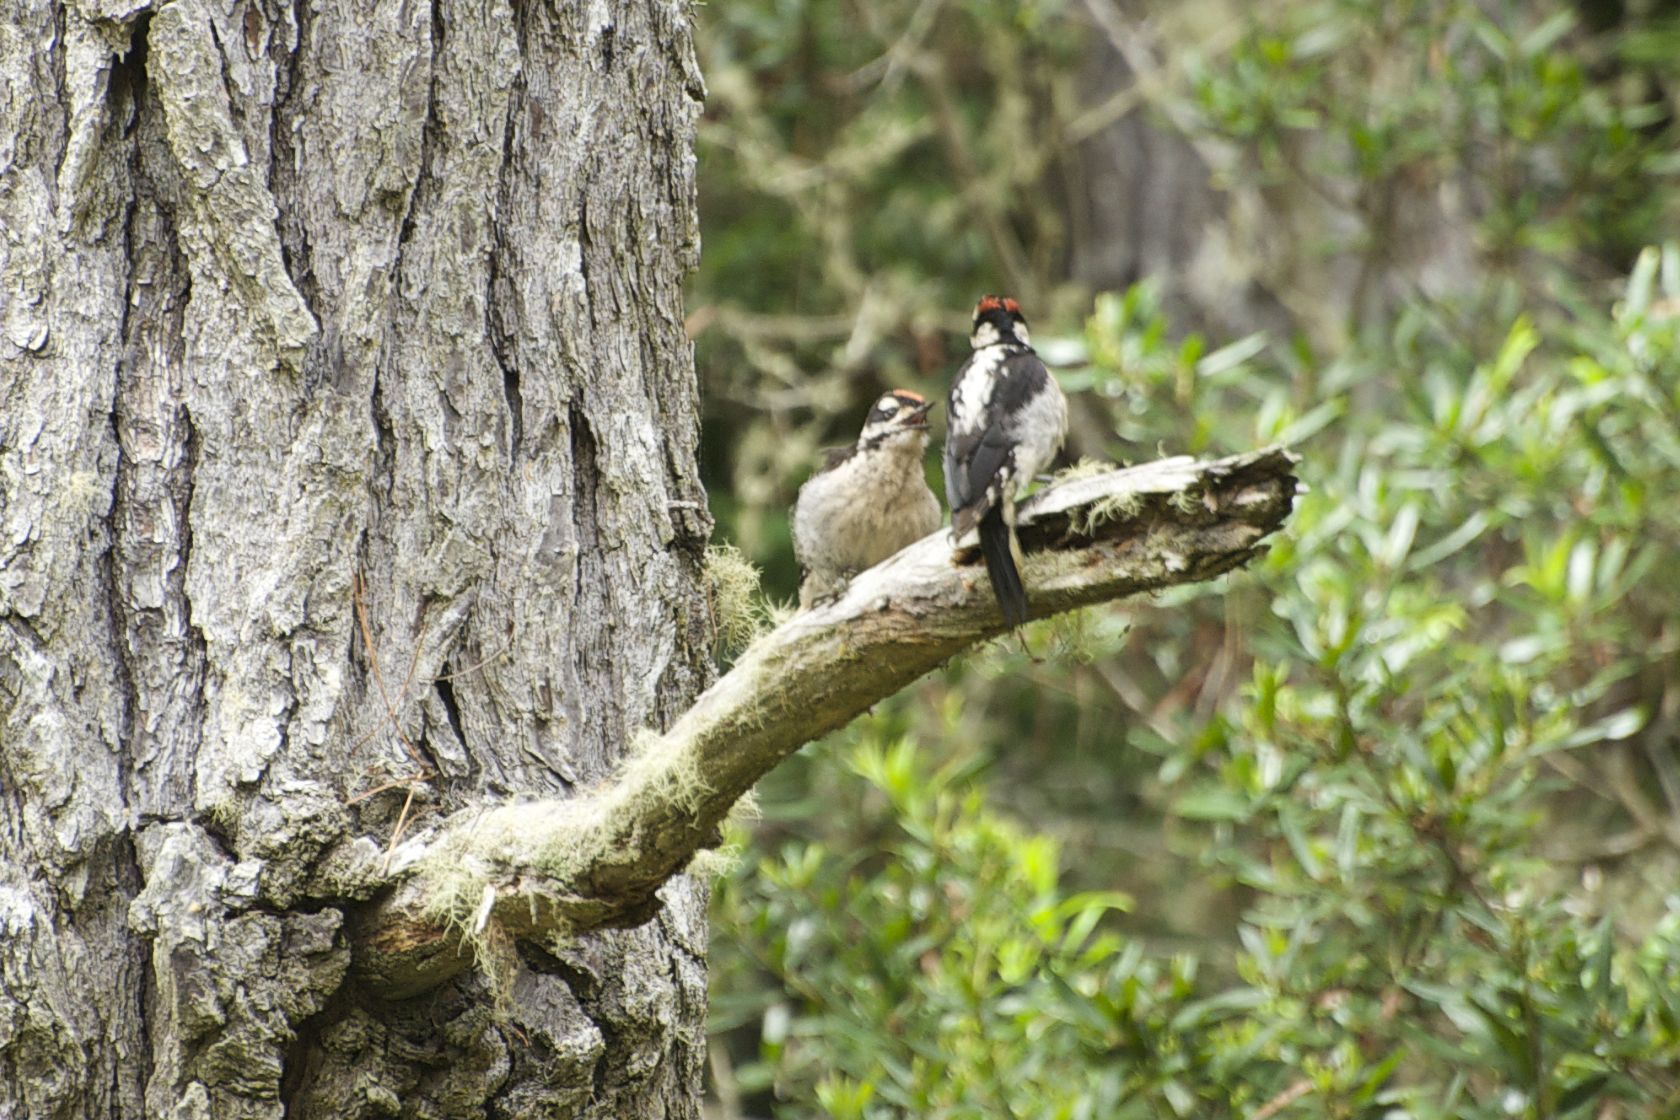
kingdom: Animalia
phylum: Chordata
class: Aves
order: Piciformes
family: Picidae
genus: Leuconotopicus
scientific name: Leuconotopicus villosus
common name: Hairy woodpecker
